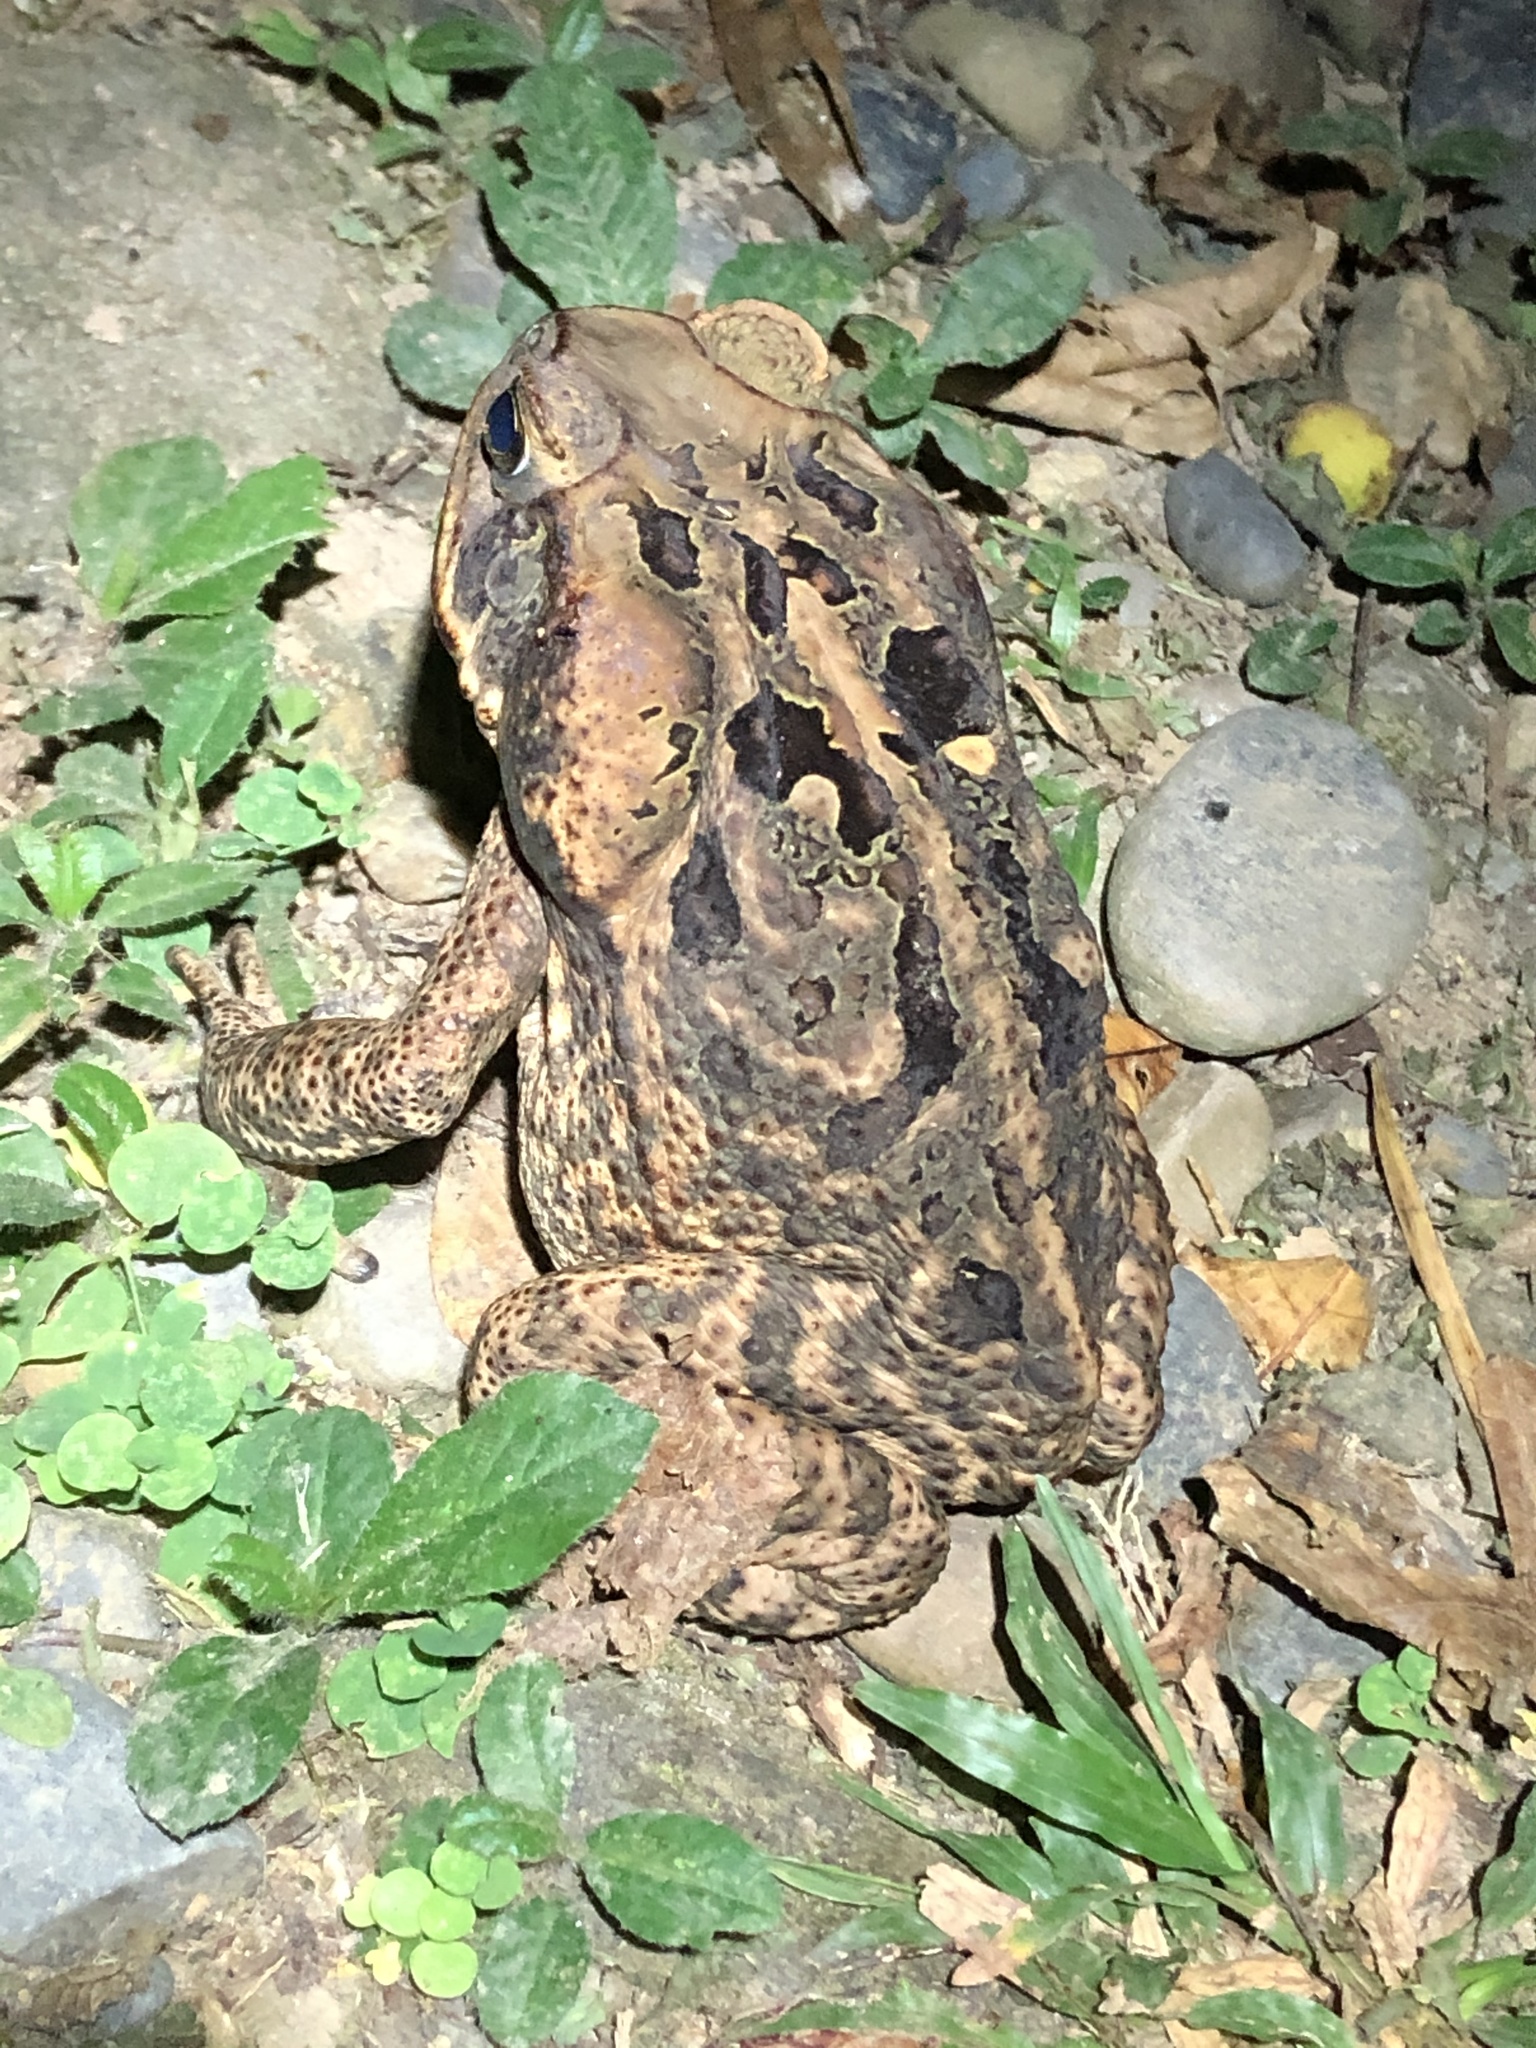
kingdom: Animalia
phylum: Chordata
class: Amphibia
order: Anura
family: Bufonidae
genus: Rhinella
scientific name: Rhinella marina
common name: Cane toad
